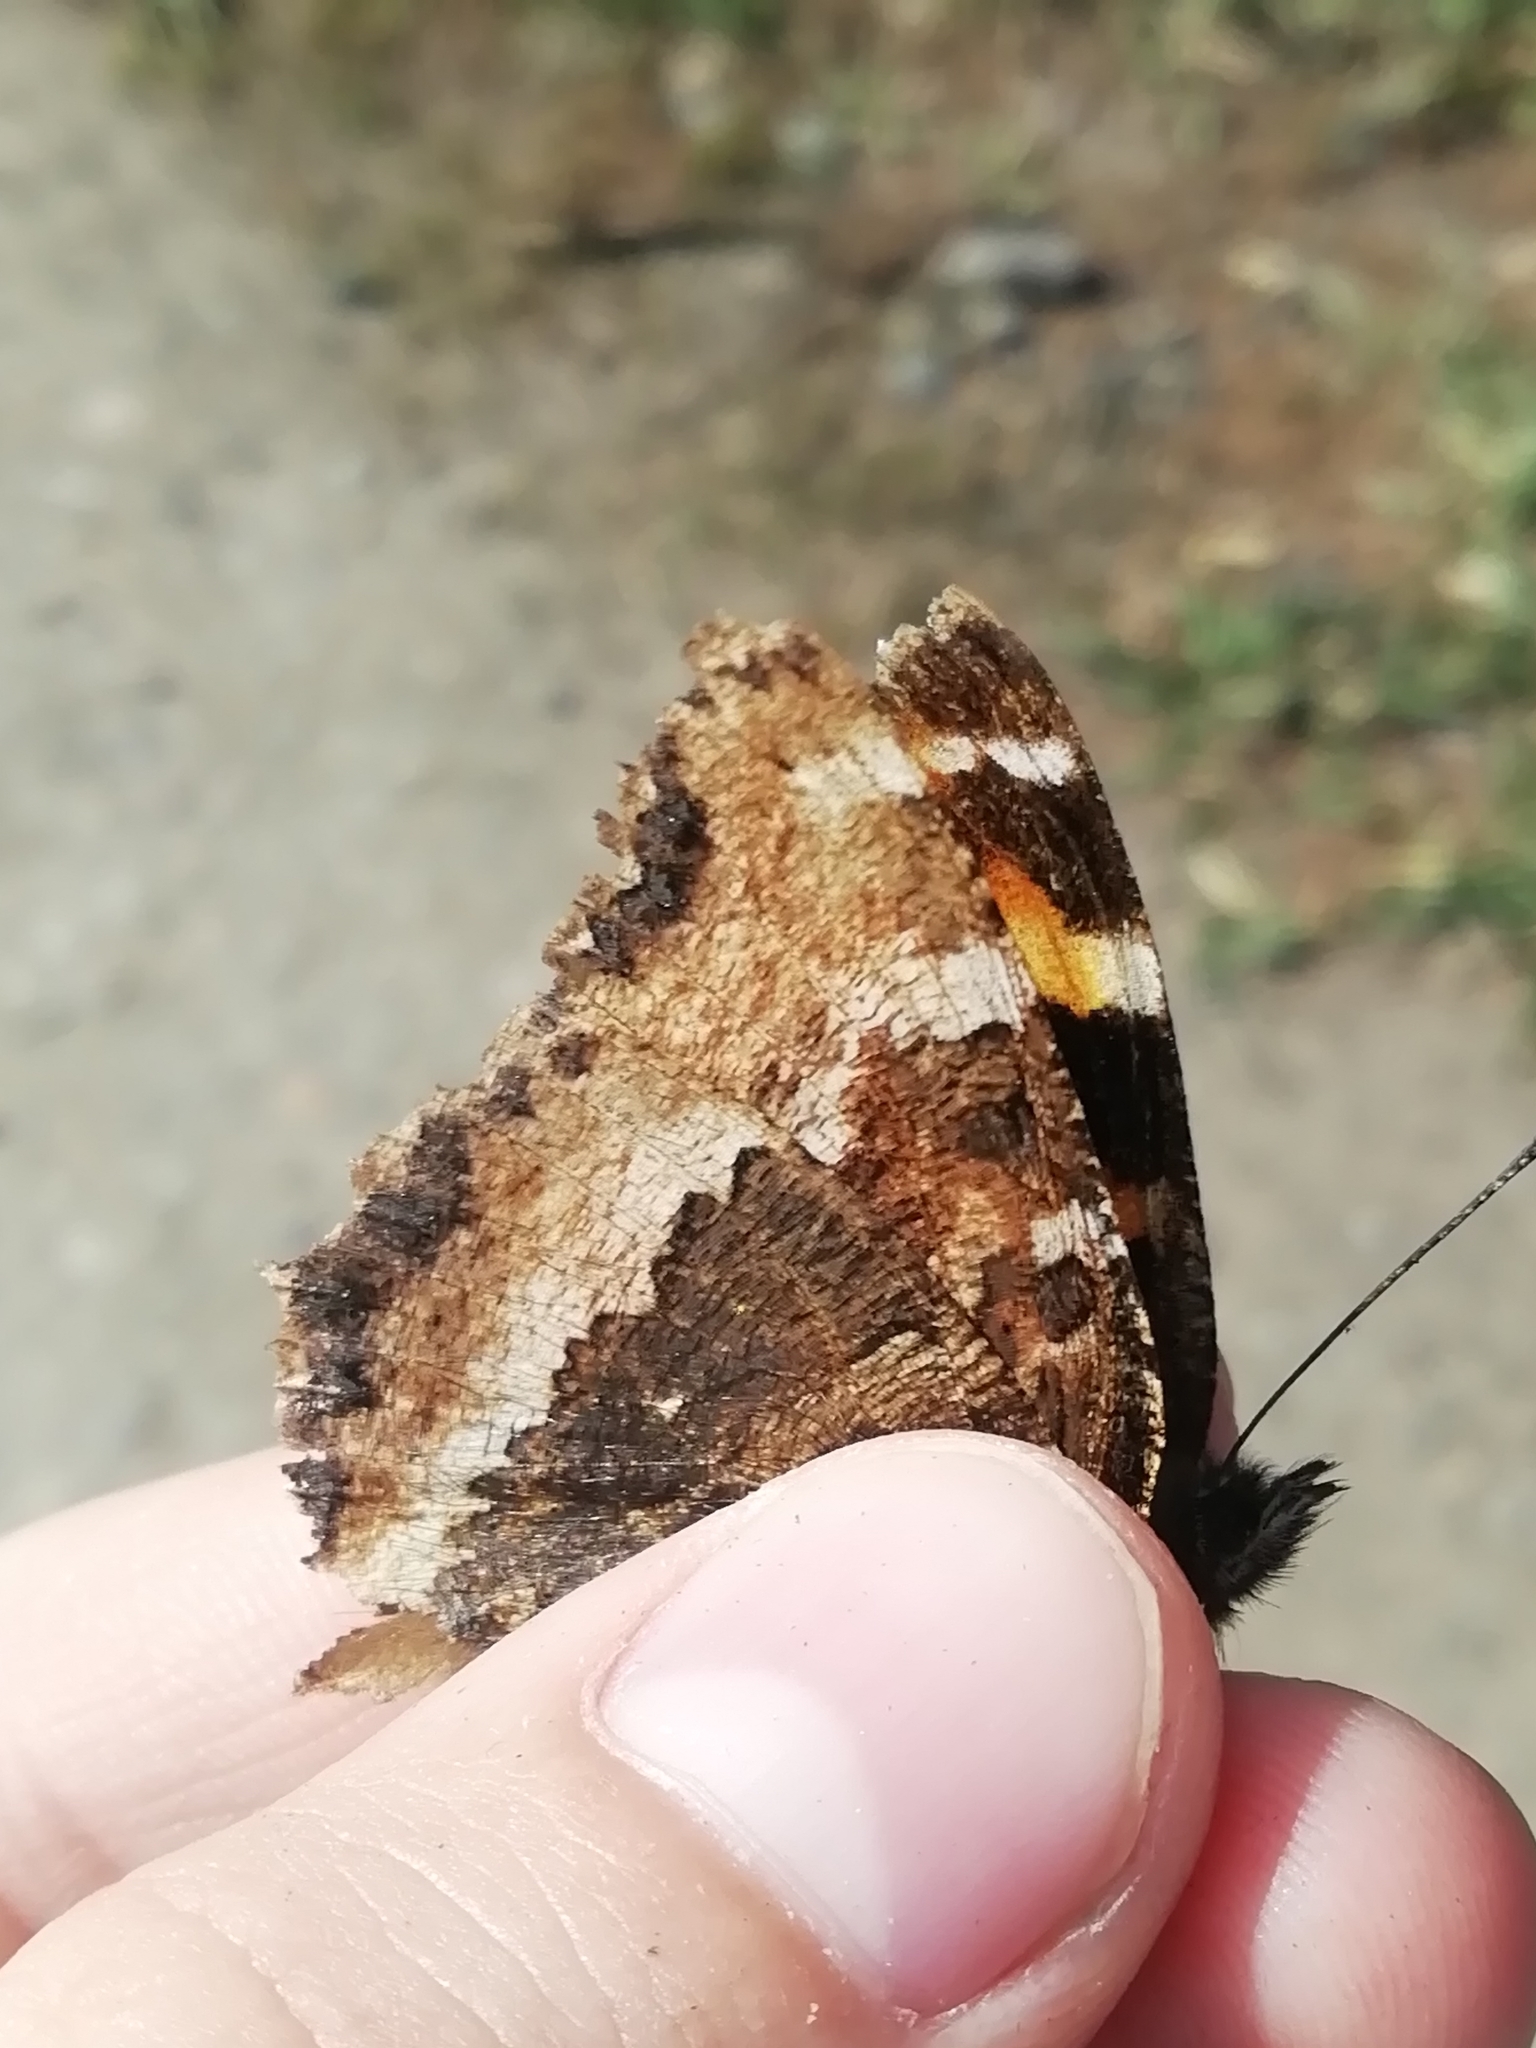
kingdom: Animalia
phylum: Arthropoda
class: Insecta
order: Lepidoptera
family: Nymphalidae
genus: Nymphalis
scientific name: Nymphalis xanthomelas
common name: Scarce tortoiseshell
